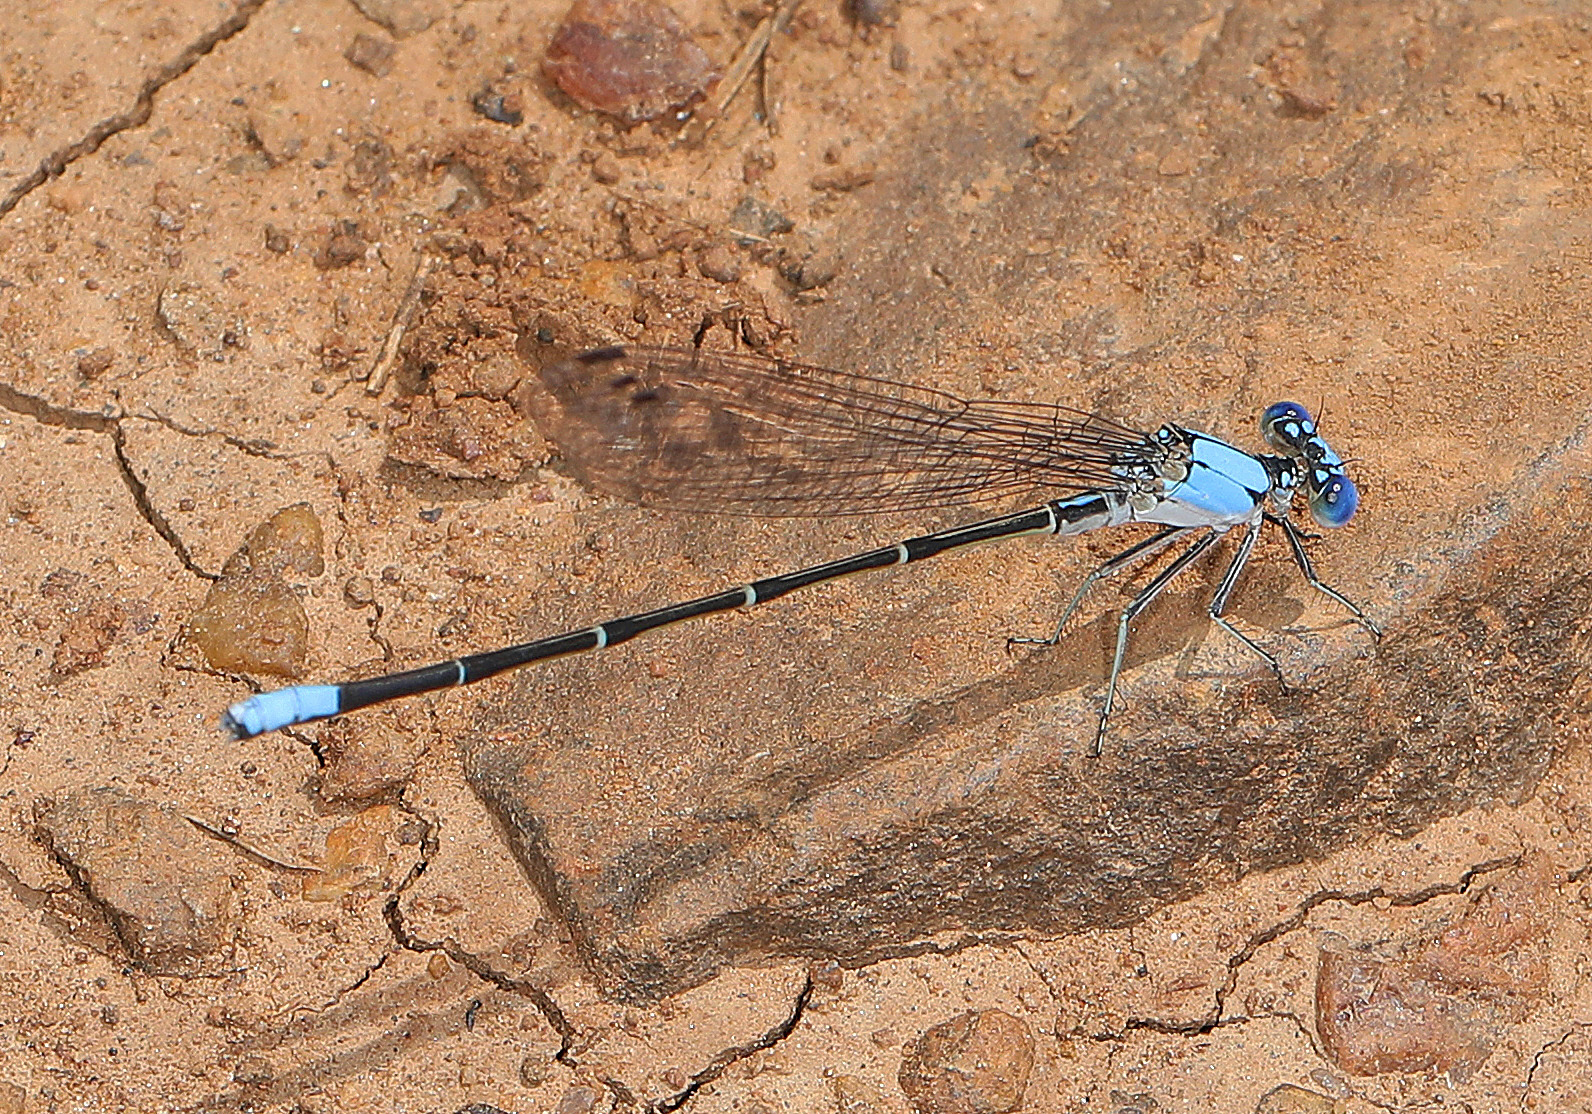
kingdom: Animalia
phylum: Arthropoda
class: Insecta
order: Odonata
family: Coenagrionidae
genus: Argia
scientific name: Argia apicalis
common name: Blue-fronted dancer
